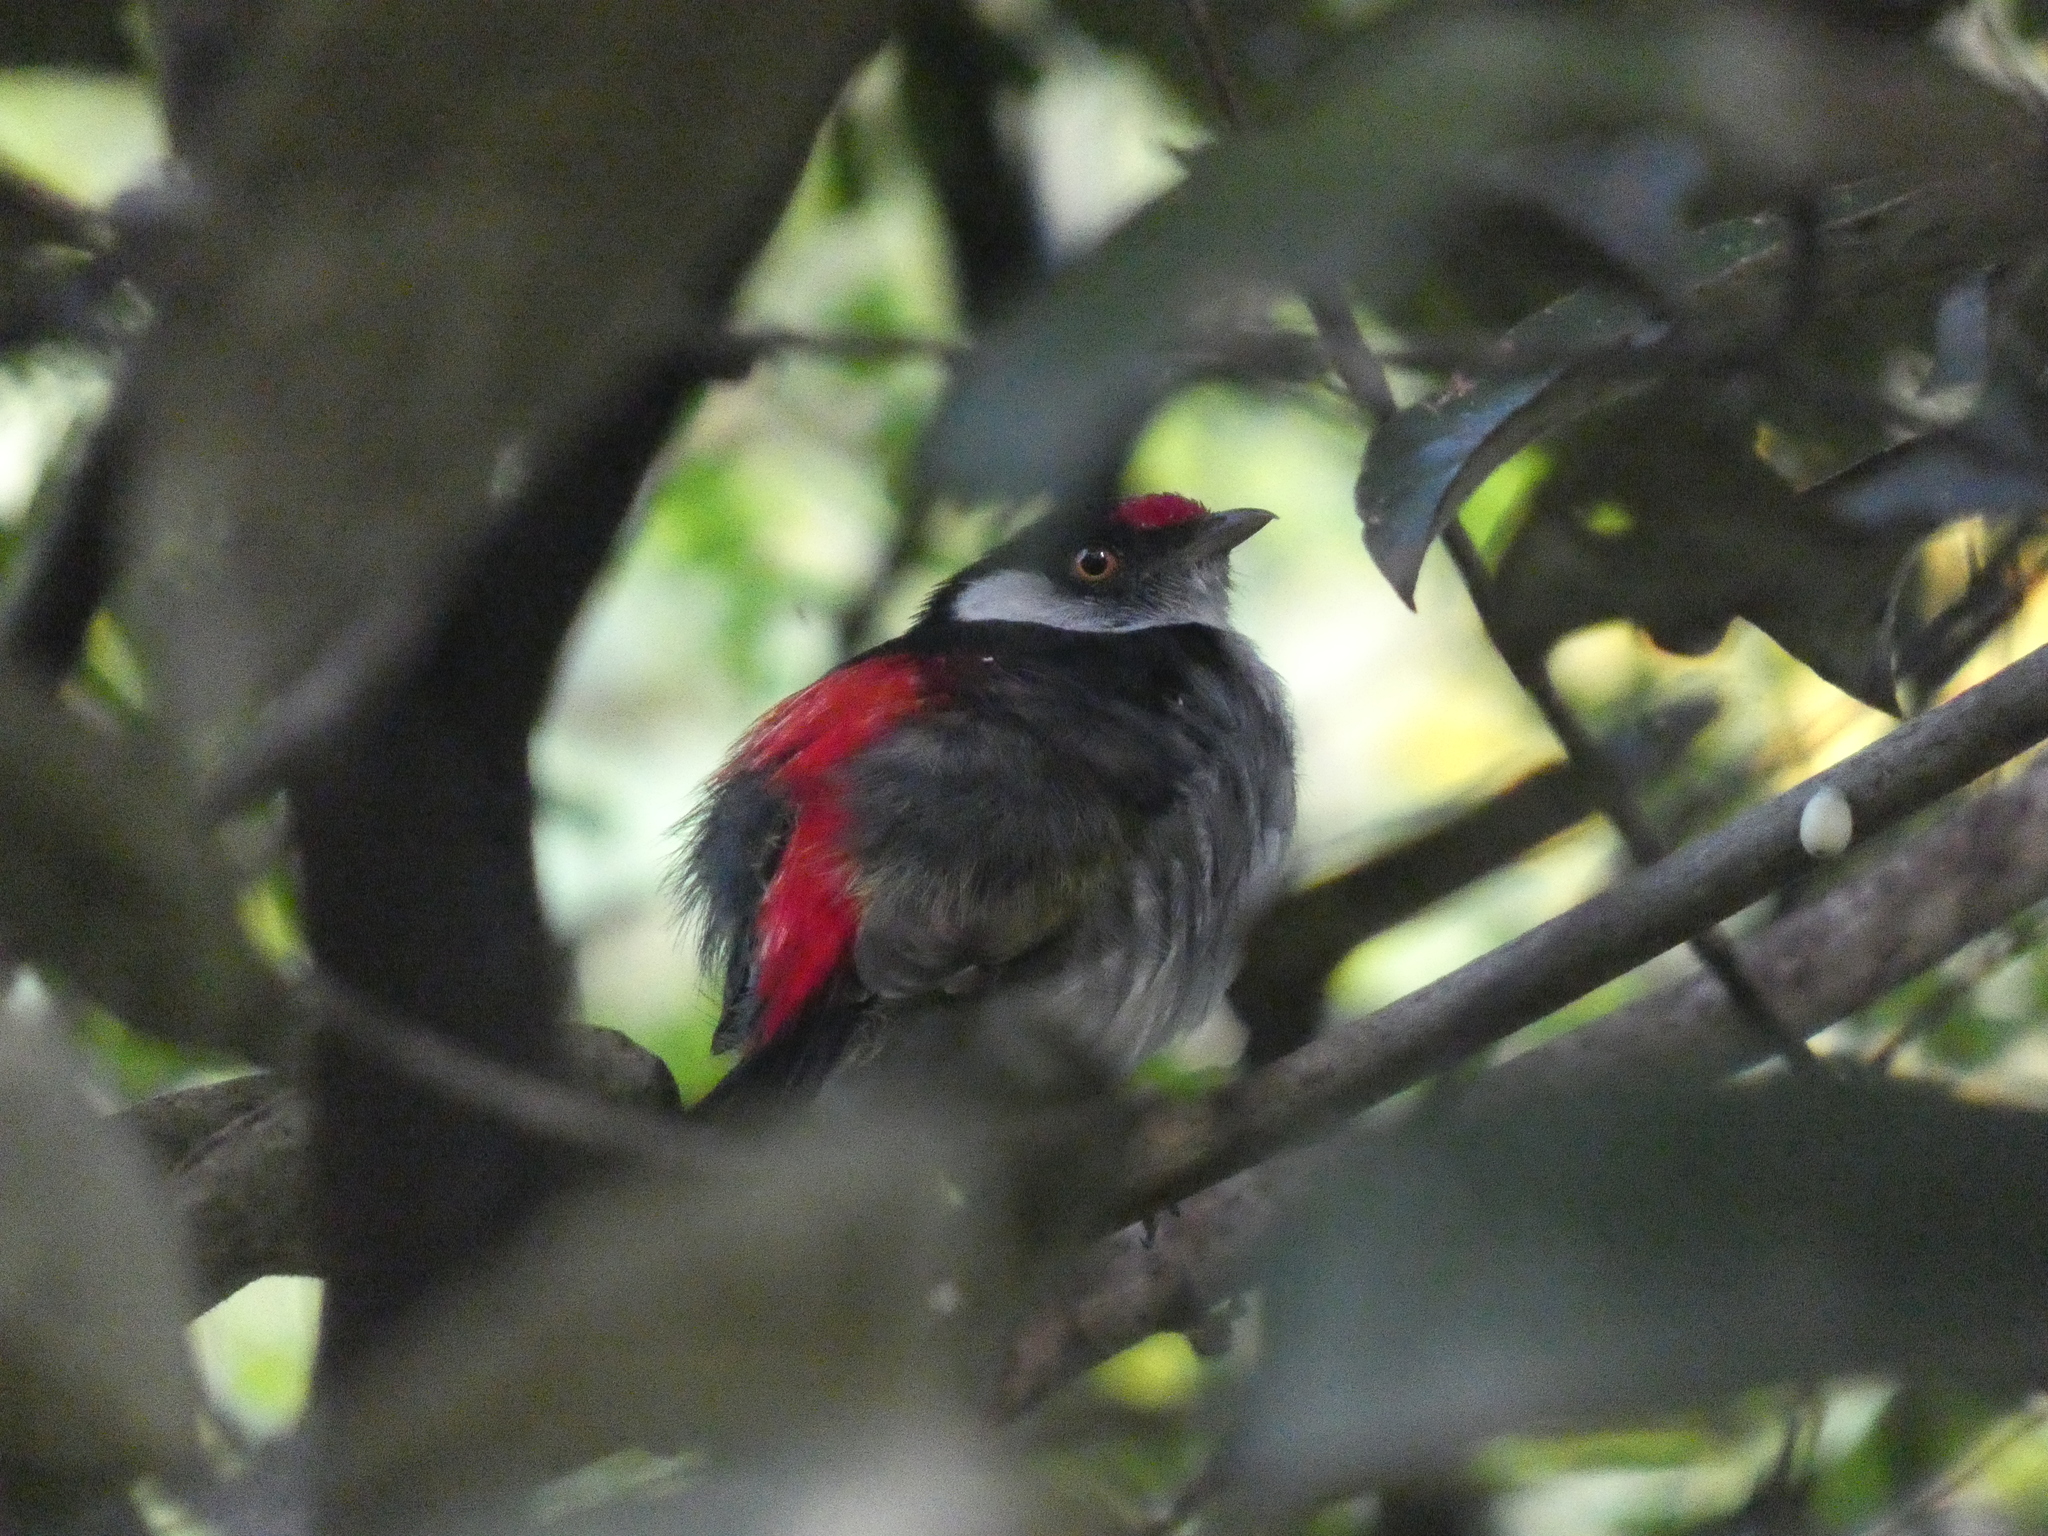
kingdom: Animalia
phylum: Chordata
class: Aves
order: Passeriformes
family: Pipridae
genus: Ilicura
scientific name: Ilicura militaris
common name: Pin-tailed manakin
